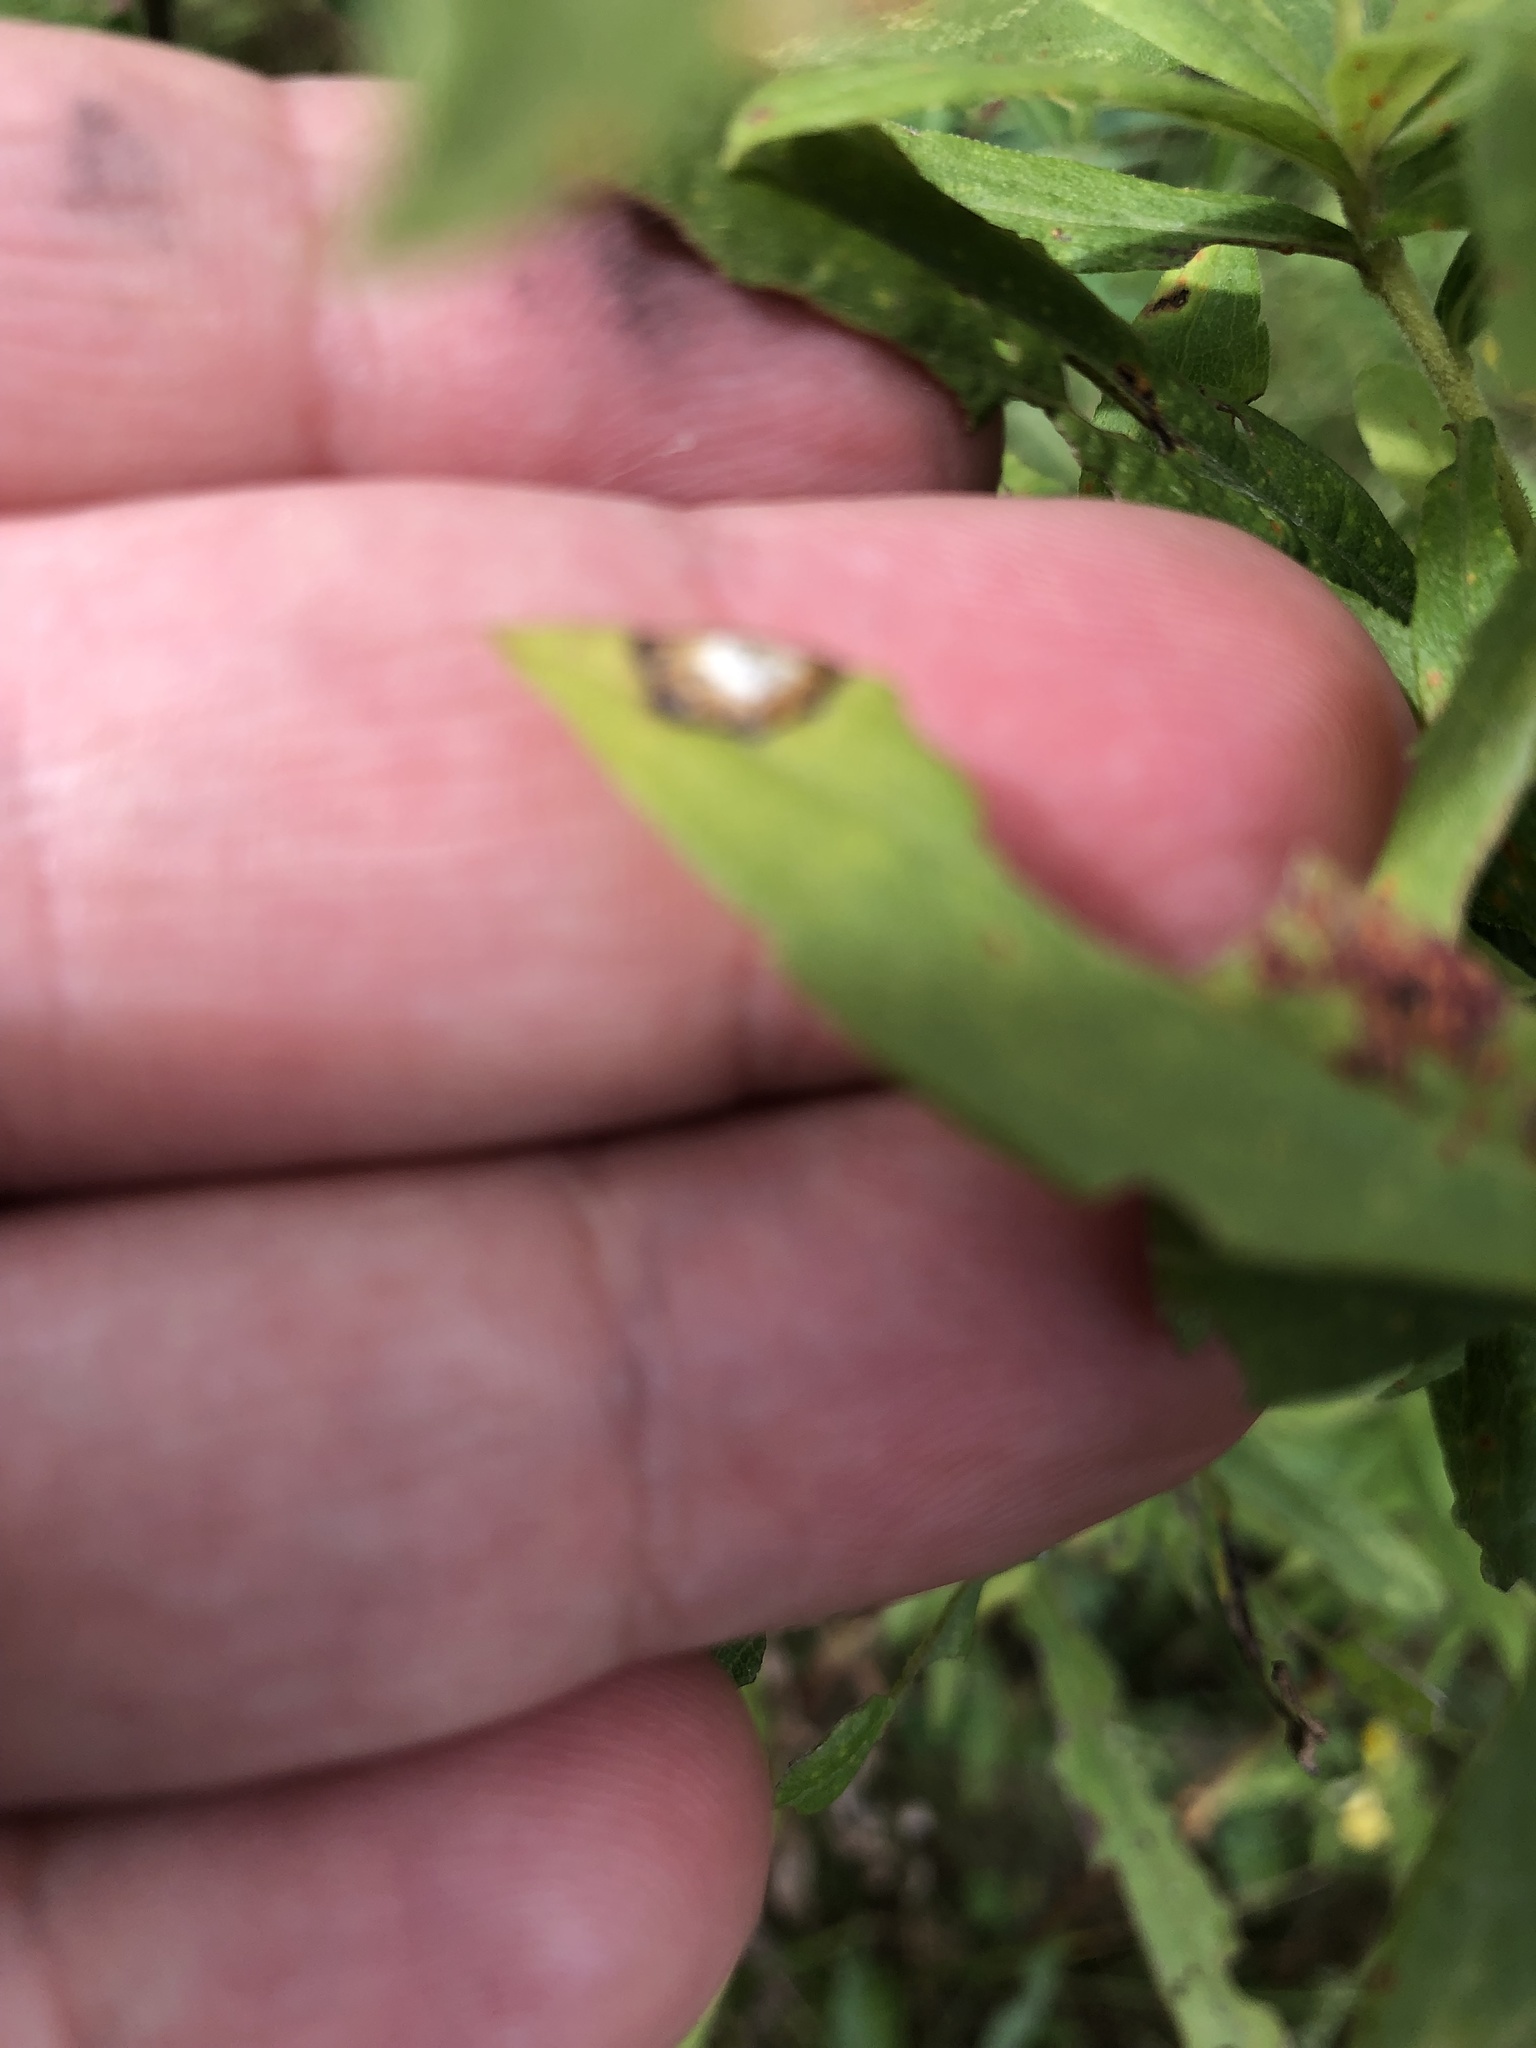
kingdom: Animalia
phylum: Arthropoda
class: Insecta
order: Diptera
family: Cecidomyiidae
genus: Asteromyia
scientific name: Asteromyia carbonifera
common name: Carbonifera goldenrod gall midge
